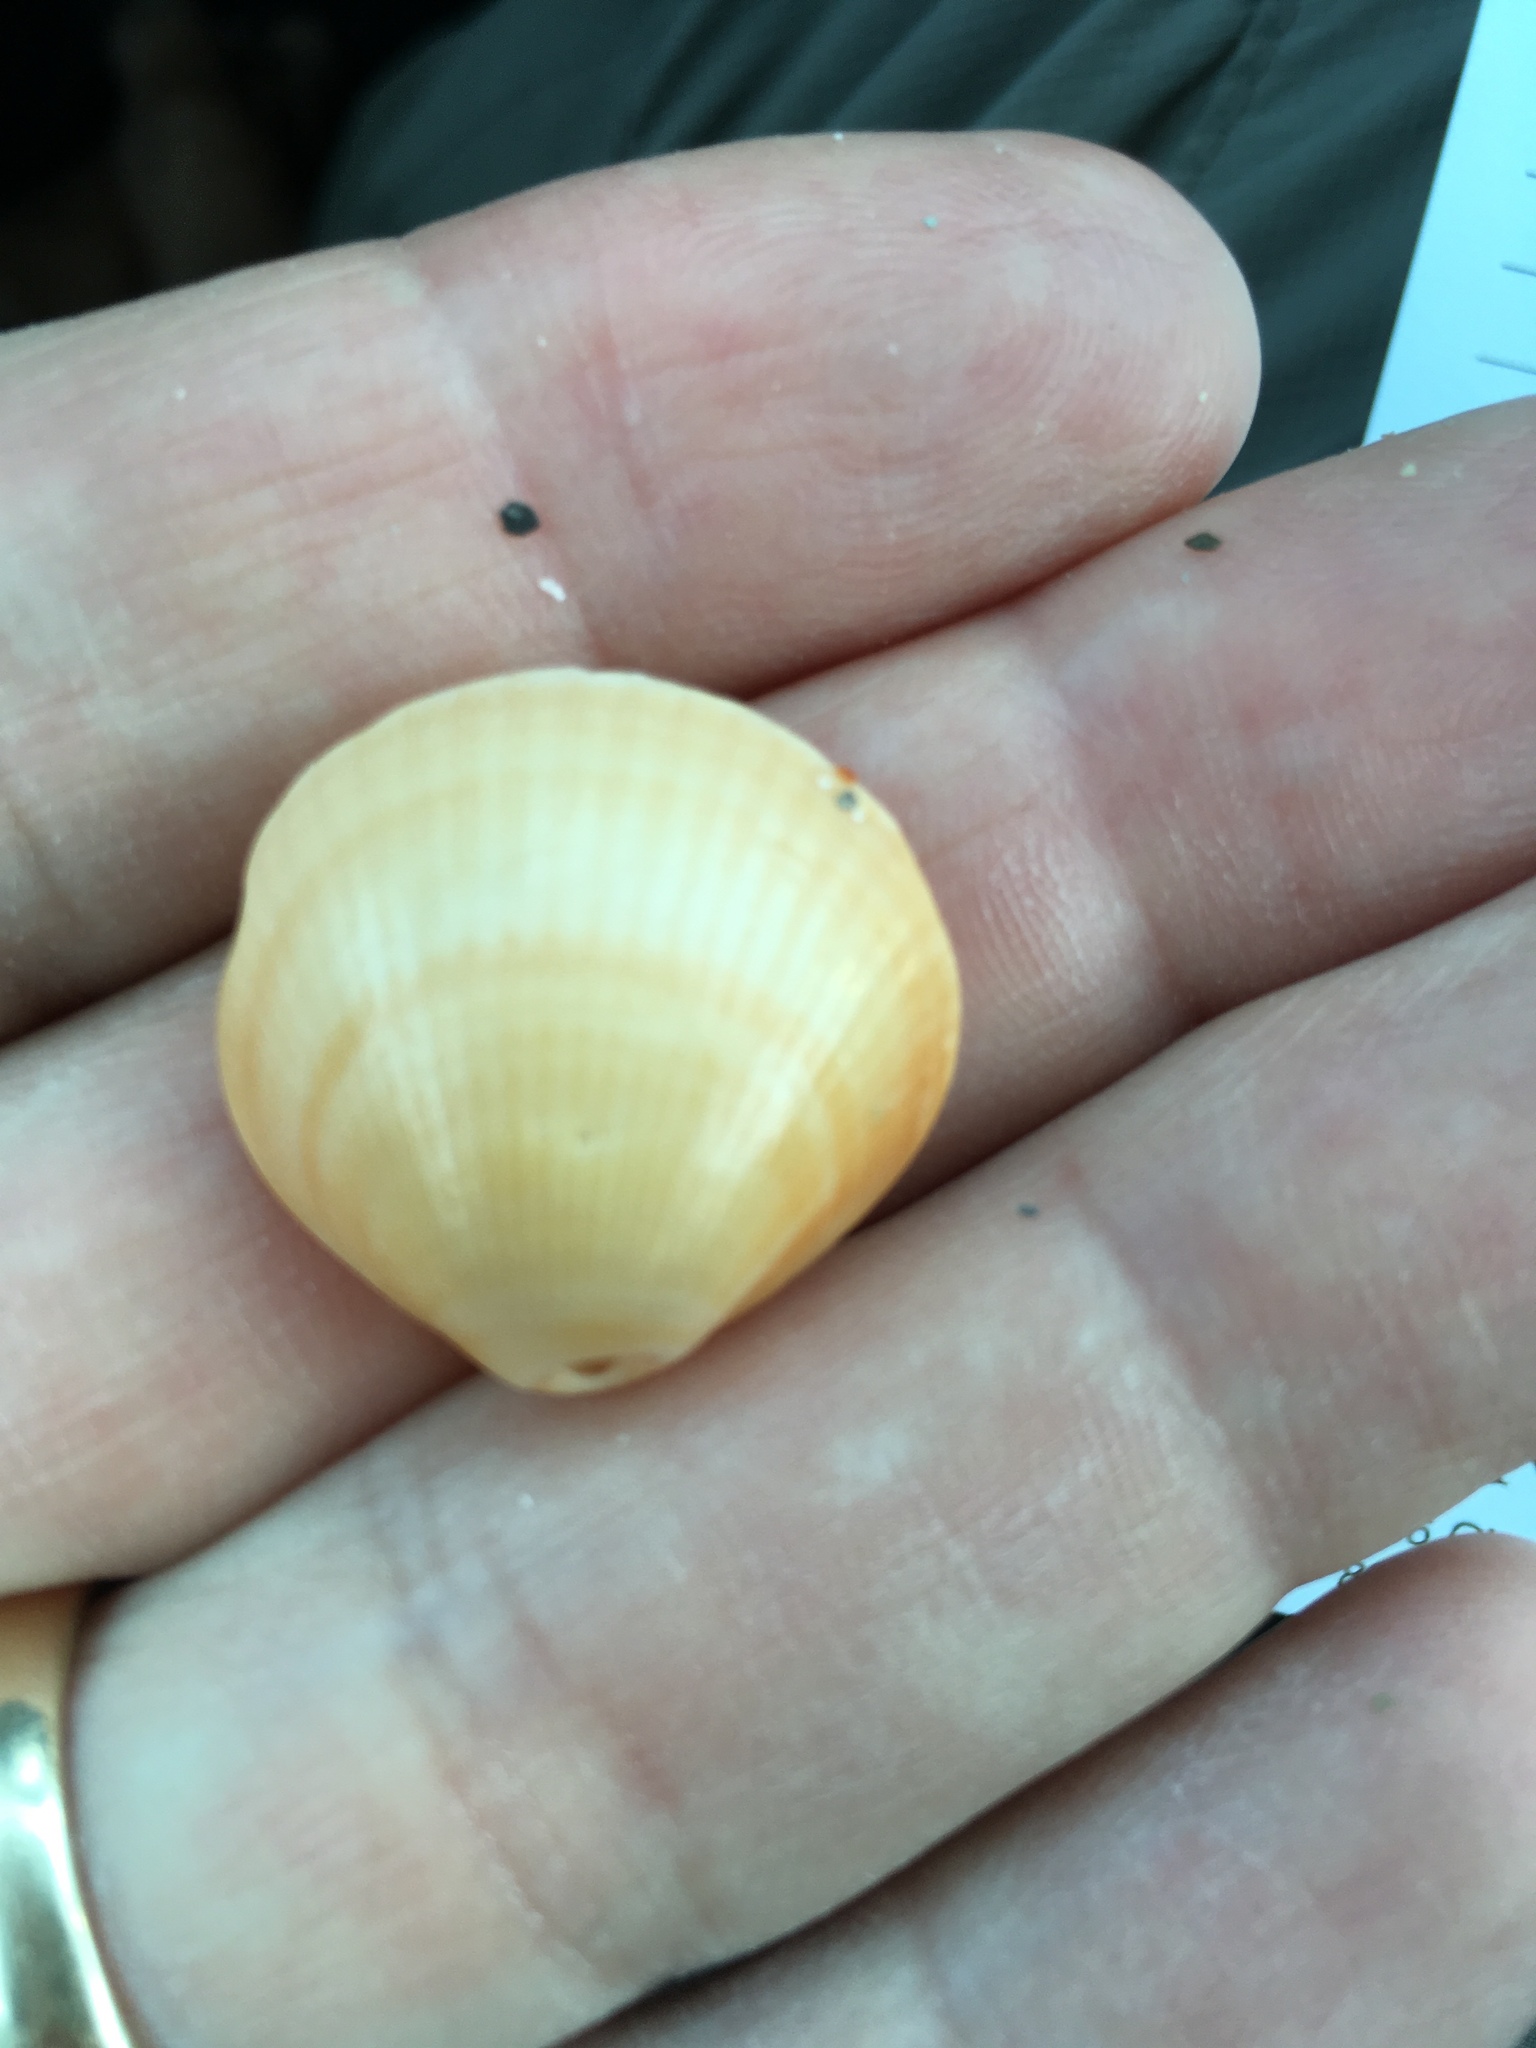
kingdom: Animalia
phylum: Mollusca
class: Bivalvia
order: Arcida
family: Glycymerididae
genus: Glycymeris
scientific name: Glycymeris spectralis
